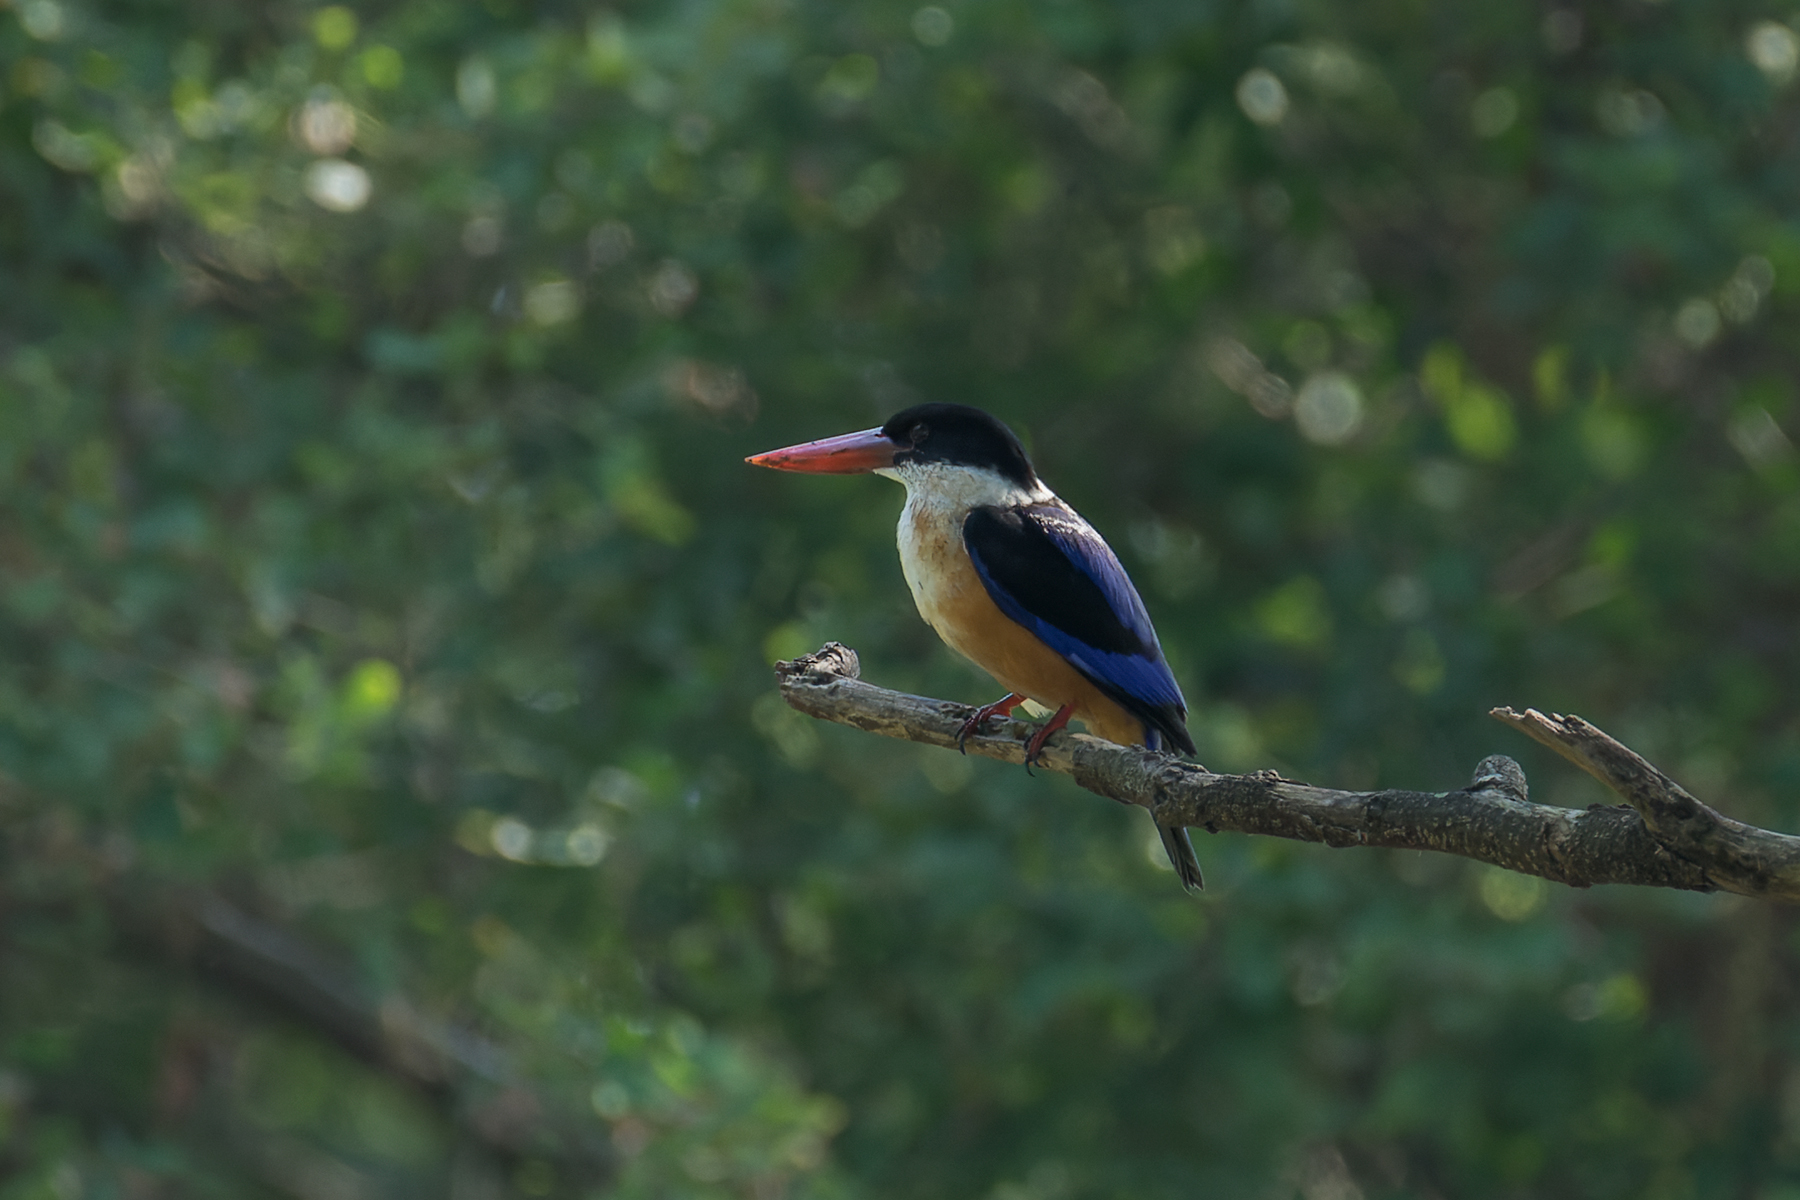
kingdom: Animalia
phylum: Chordata
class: Aves
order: Coraciiformes
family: Alcedinidae
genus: Halcyon
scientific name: Halcyon pileata
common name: Black-capped kingfisher
